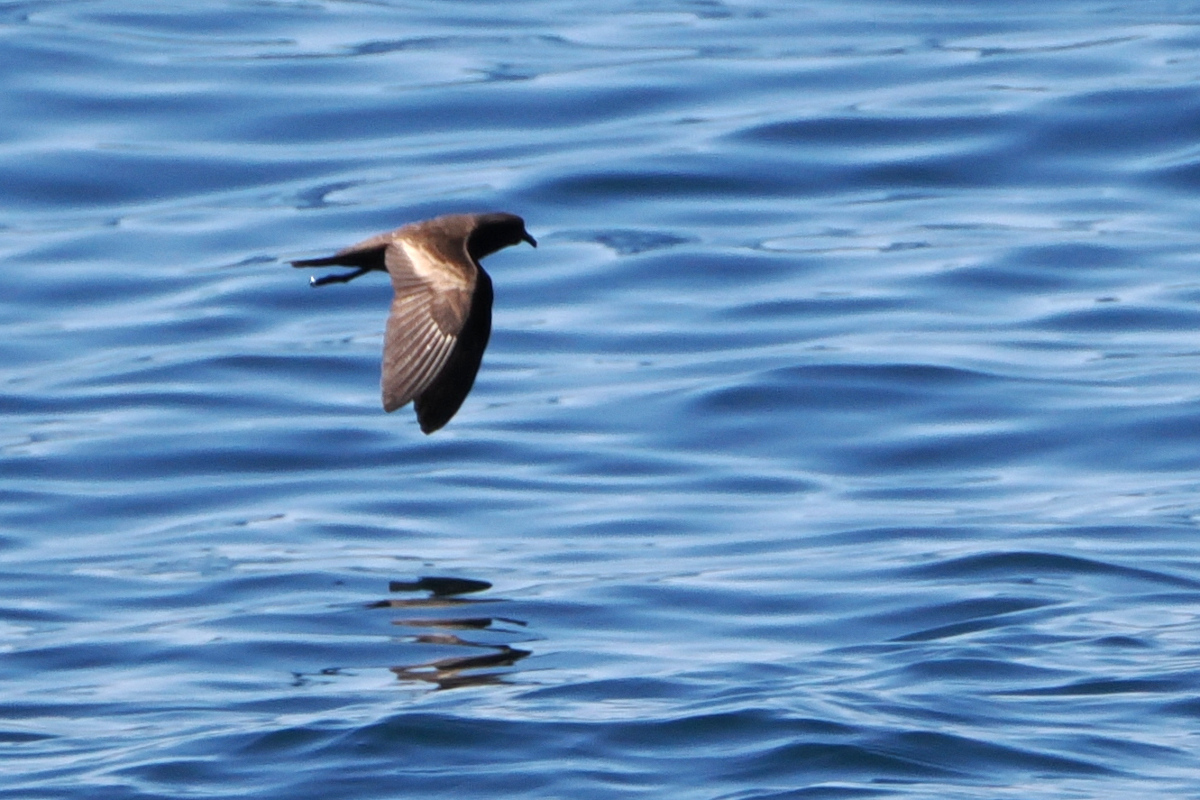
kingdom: Animalia
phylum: Chordata
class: Aves
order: Procellariiformes
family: Hydrobatidae
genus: Oceanodroma
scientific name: Oceanodroma microsoma
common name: Least storm-petrel
